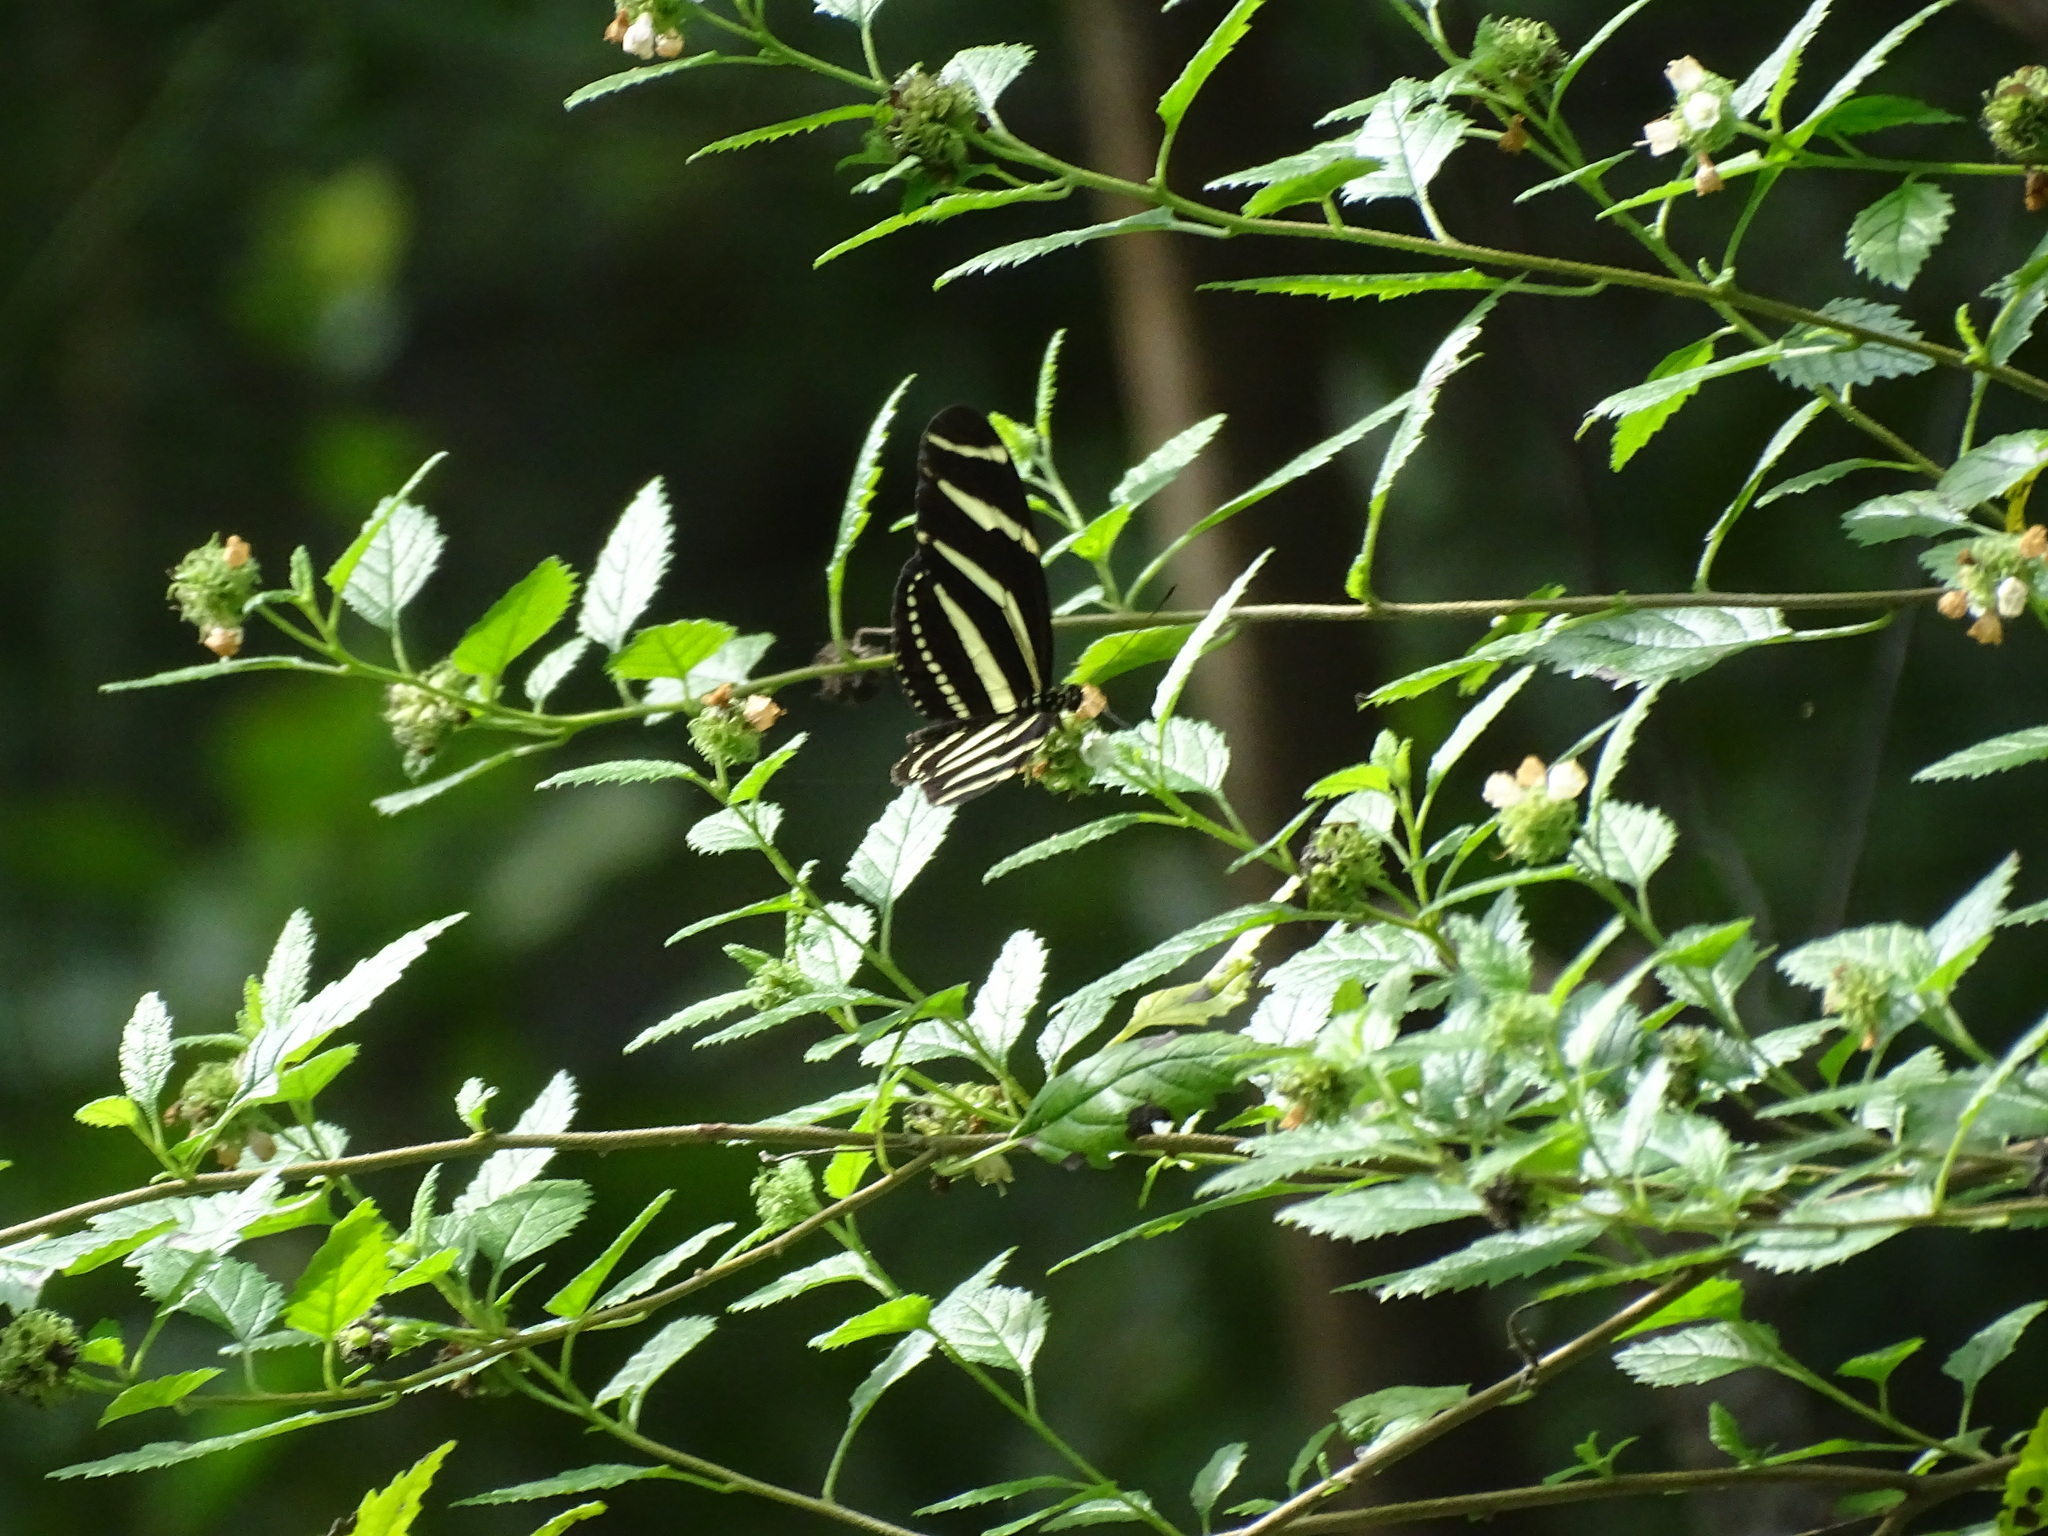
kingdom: Animalia
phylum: Arthropoda
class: Insecta
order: Lepidoptera
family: Nymphalidae
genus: Heliconius
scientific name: Heliconius charithonia
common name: Zebra long wing
